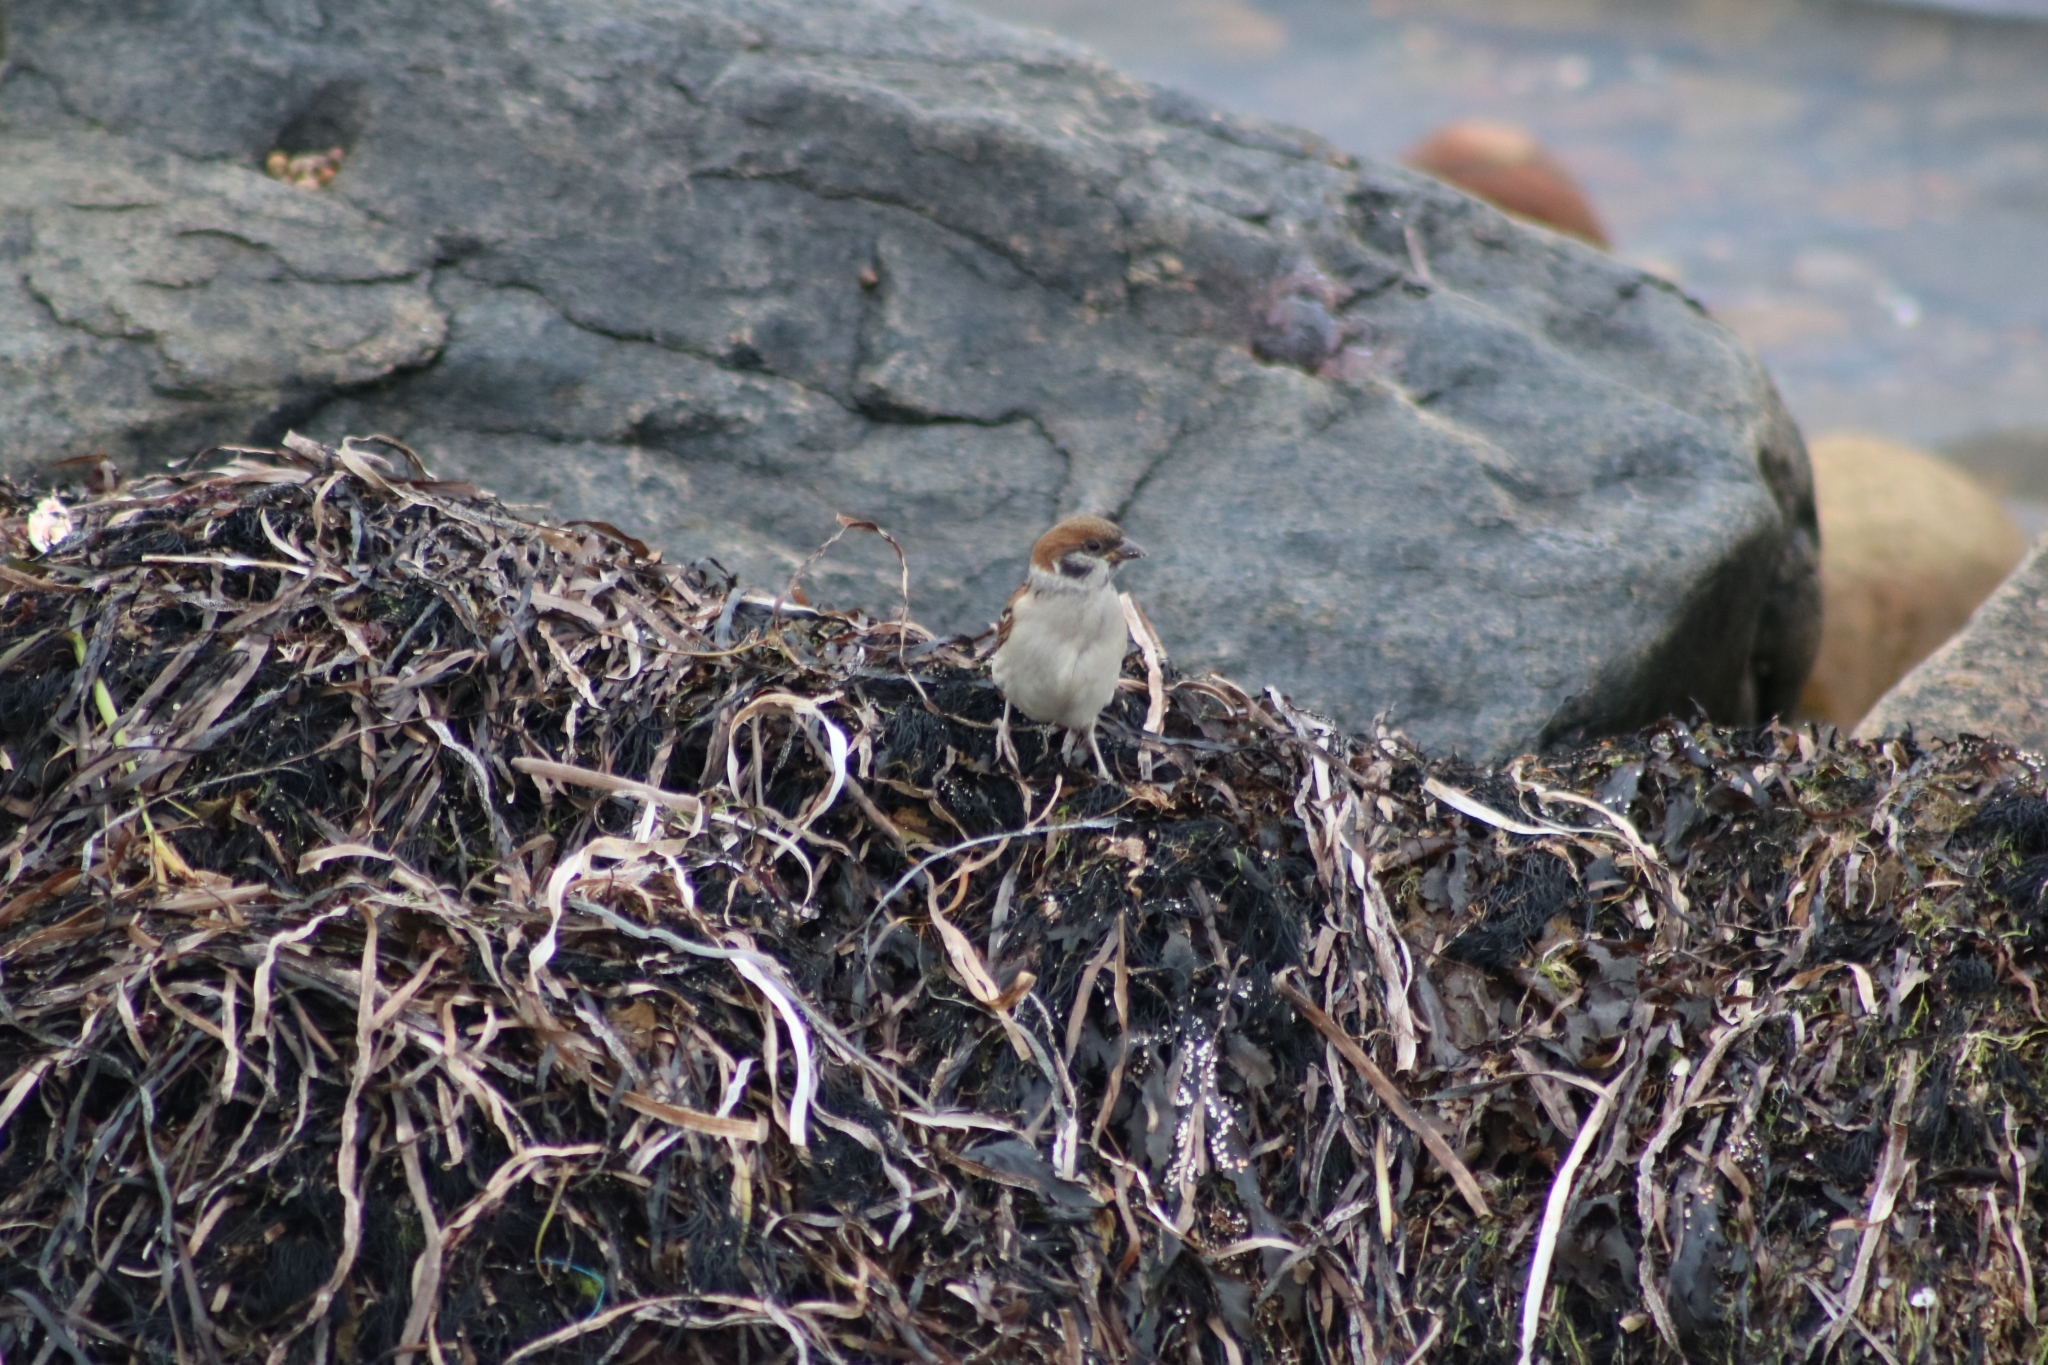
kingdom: Animalia
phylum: Chordata
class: Aves
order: Passeriformes
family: Passeridae
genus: Passer
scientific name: Passer montanus
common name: Eurasian tree sparrow
